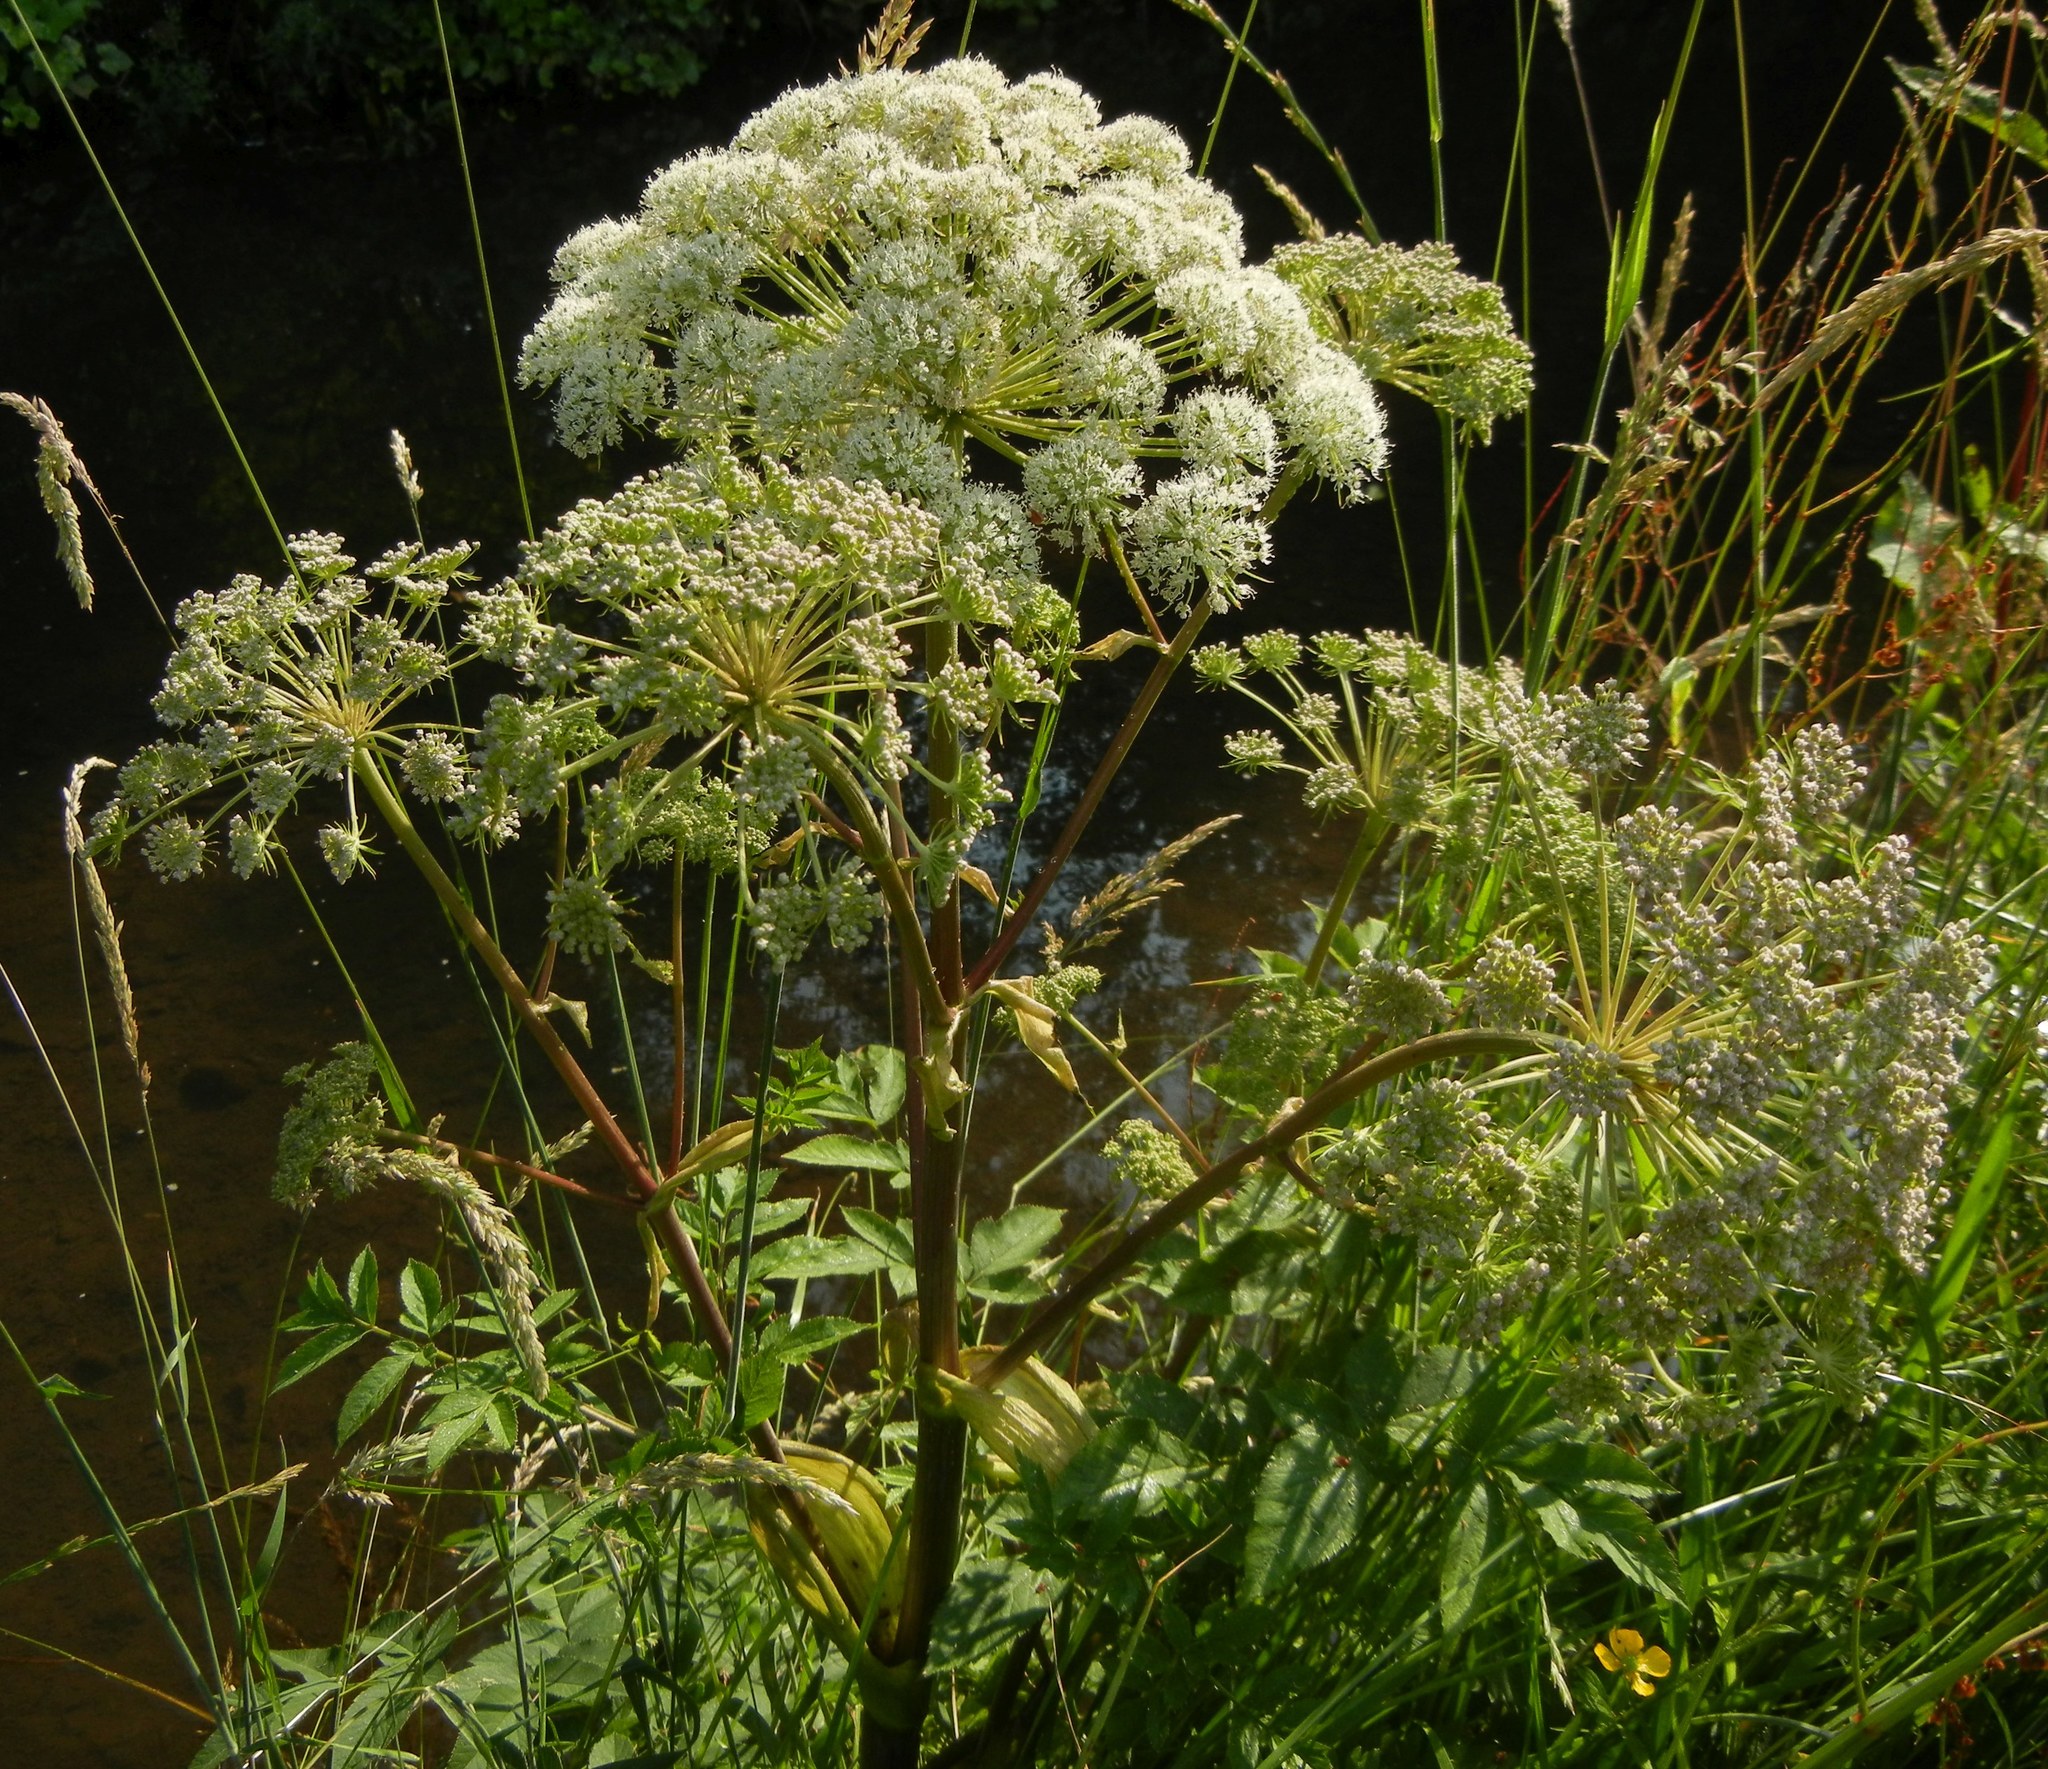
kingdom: Plantae
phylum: Tracheophyta
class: Magnoliopsida
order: Apiales
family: Apiaceae
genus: Angelica
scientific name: Angelica sylvestris
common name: Wild angelica
